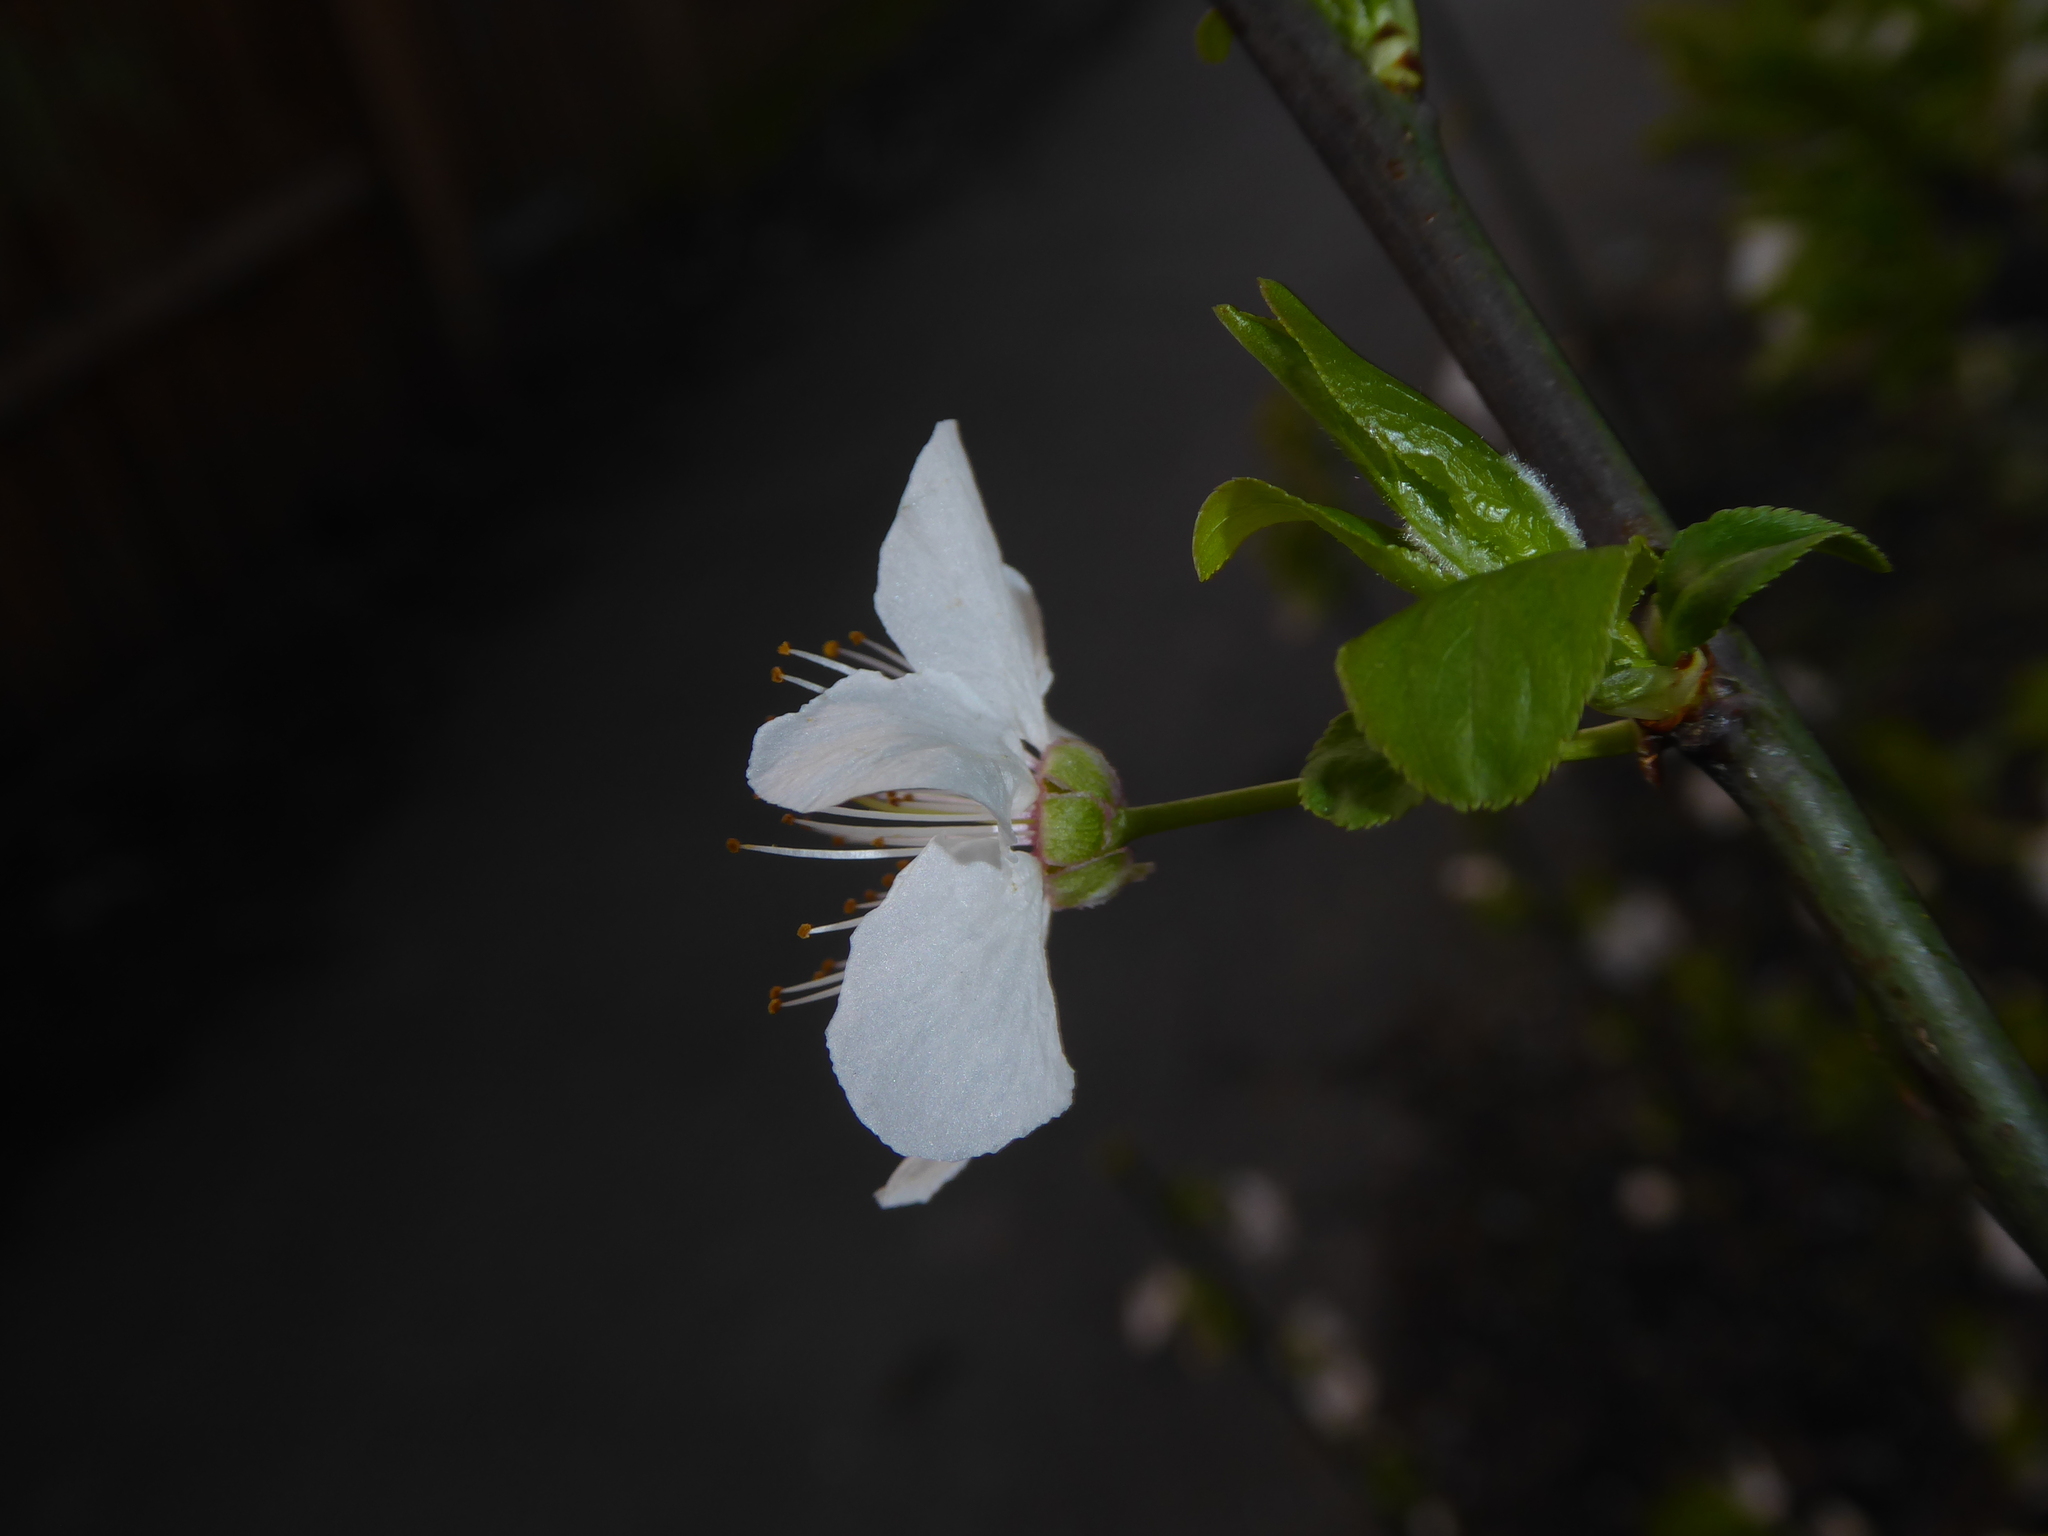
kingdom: Plantae
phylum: Tracheophyta
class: Magnoliopsida
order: Rosales
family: Rosaceae
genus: Prunus
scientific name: Prunus cerasifera
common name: Cherry plum
